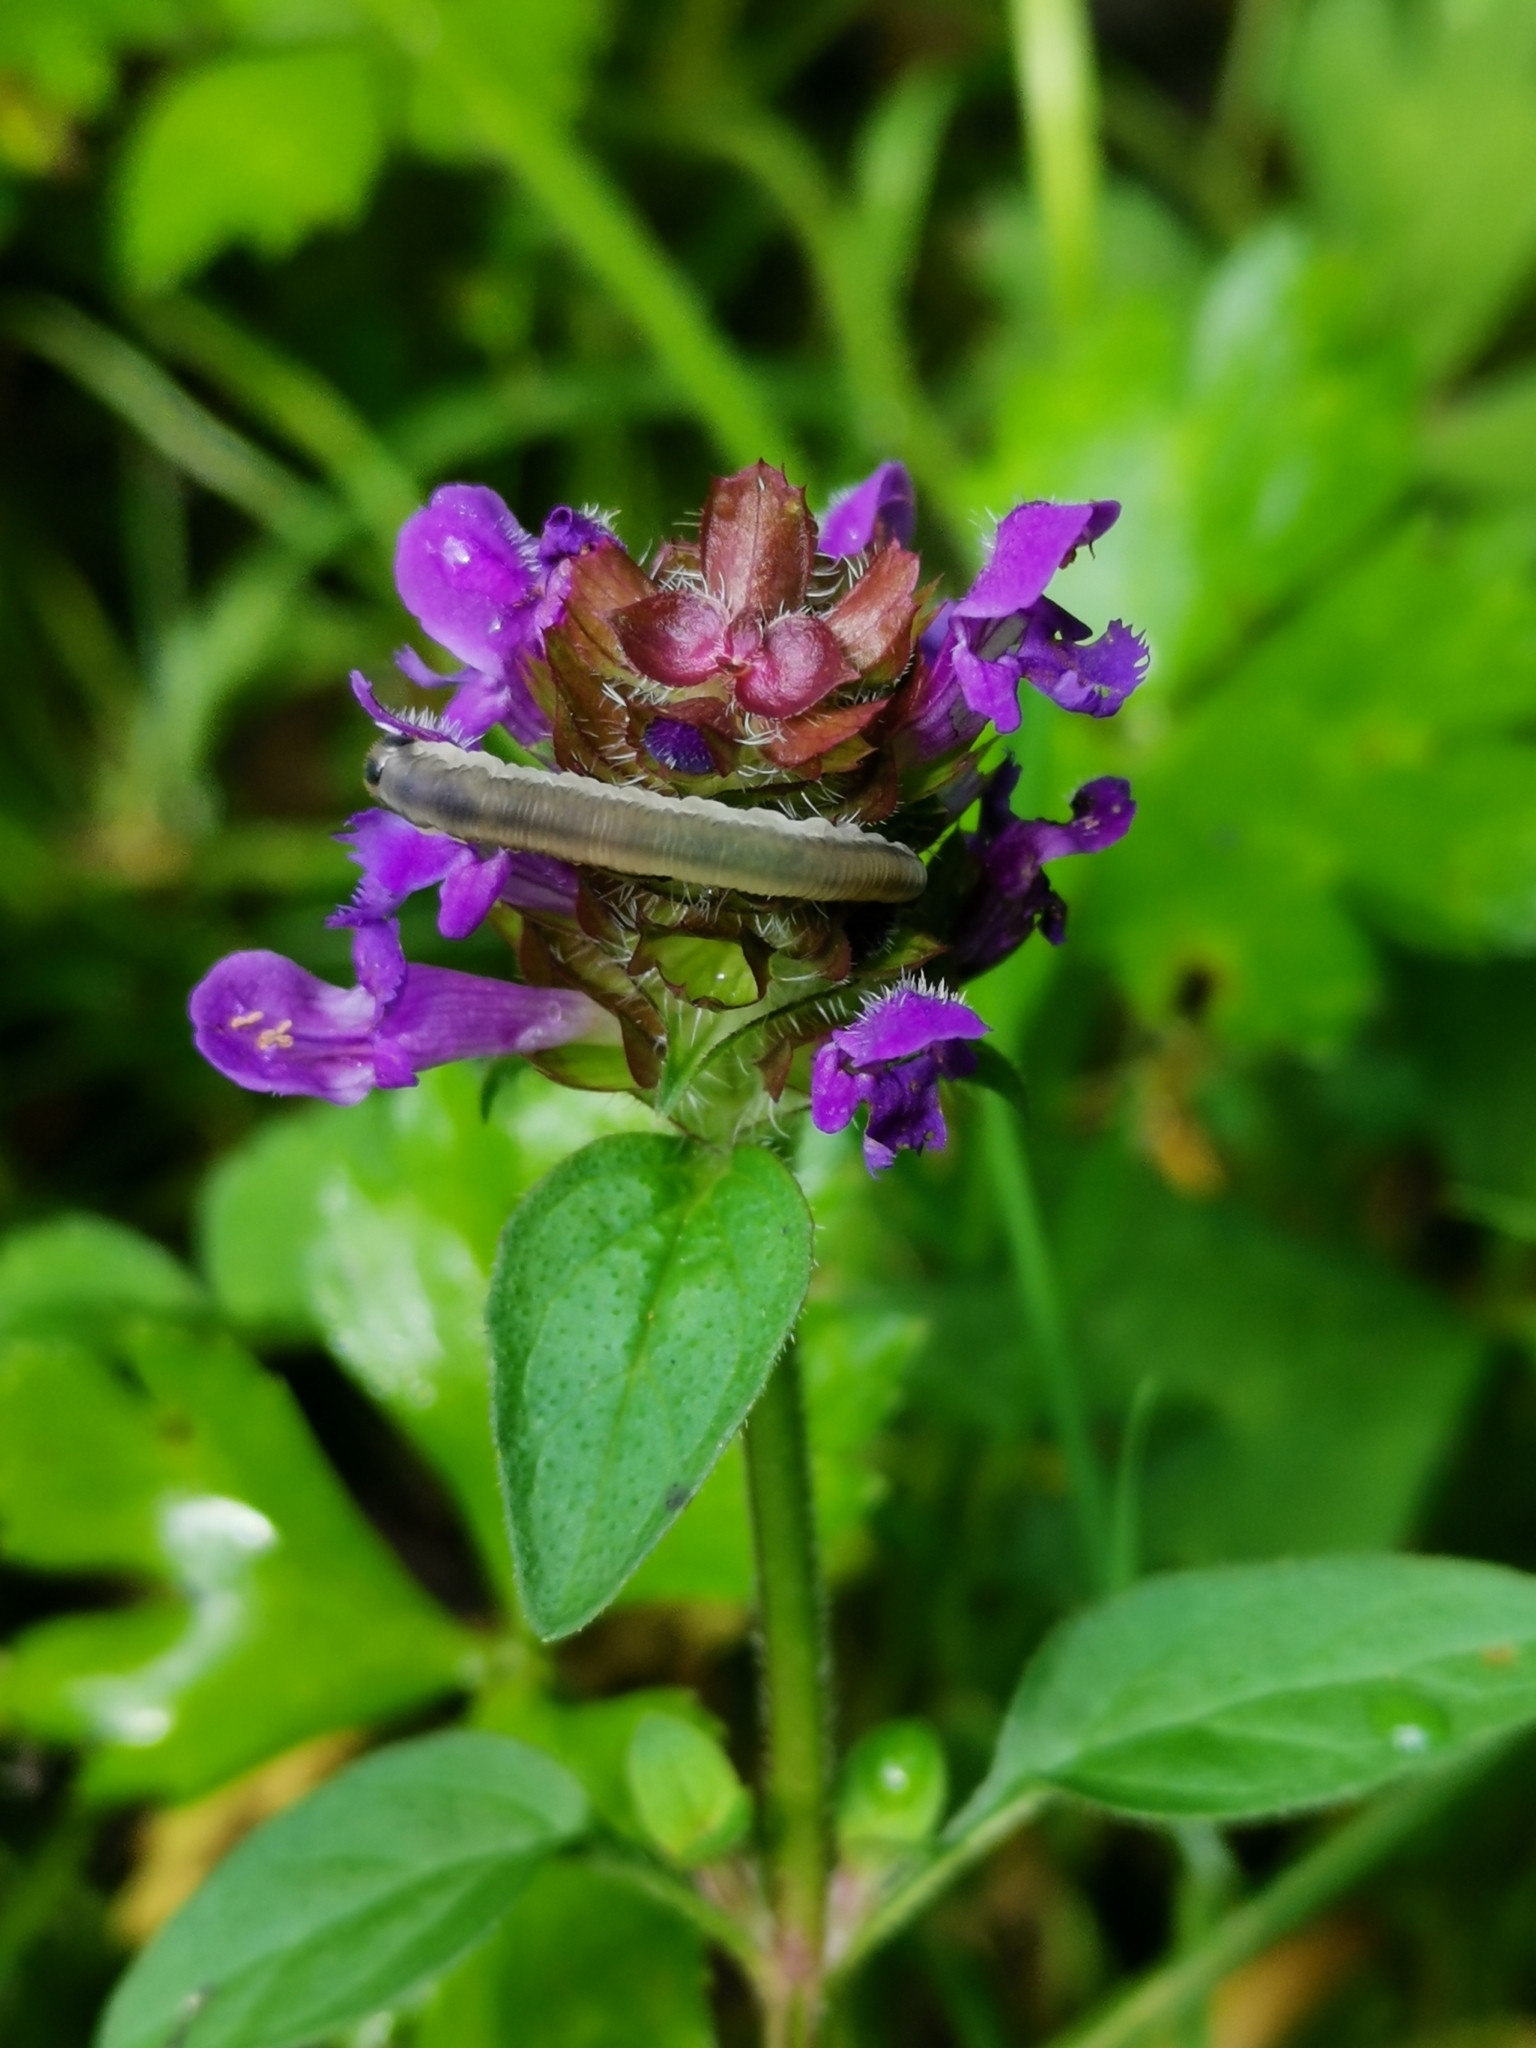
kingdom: Plantae
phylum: Tracheophyta
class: Magnoliopsida
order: Lamiales
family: Lamiaceae
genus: Prunella
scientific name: Prunella vulgaris
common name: Heal-all
